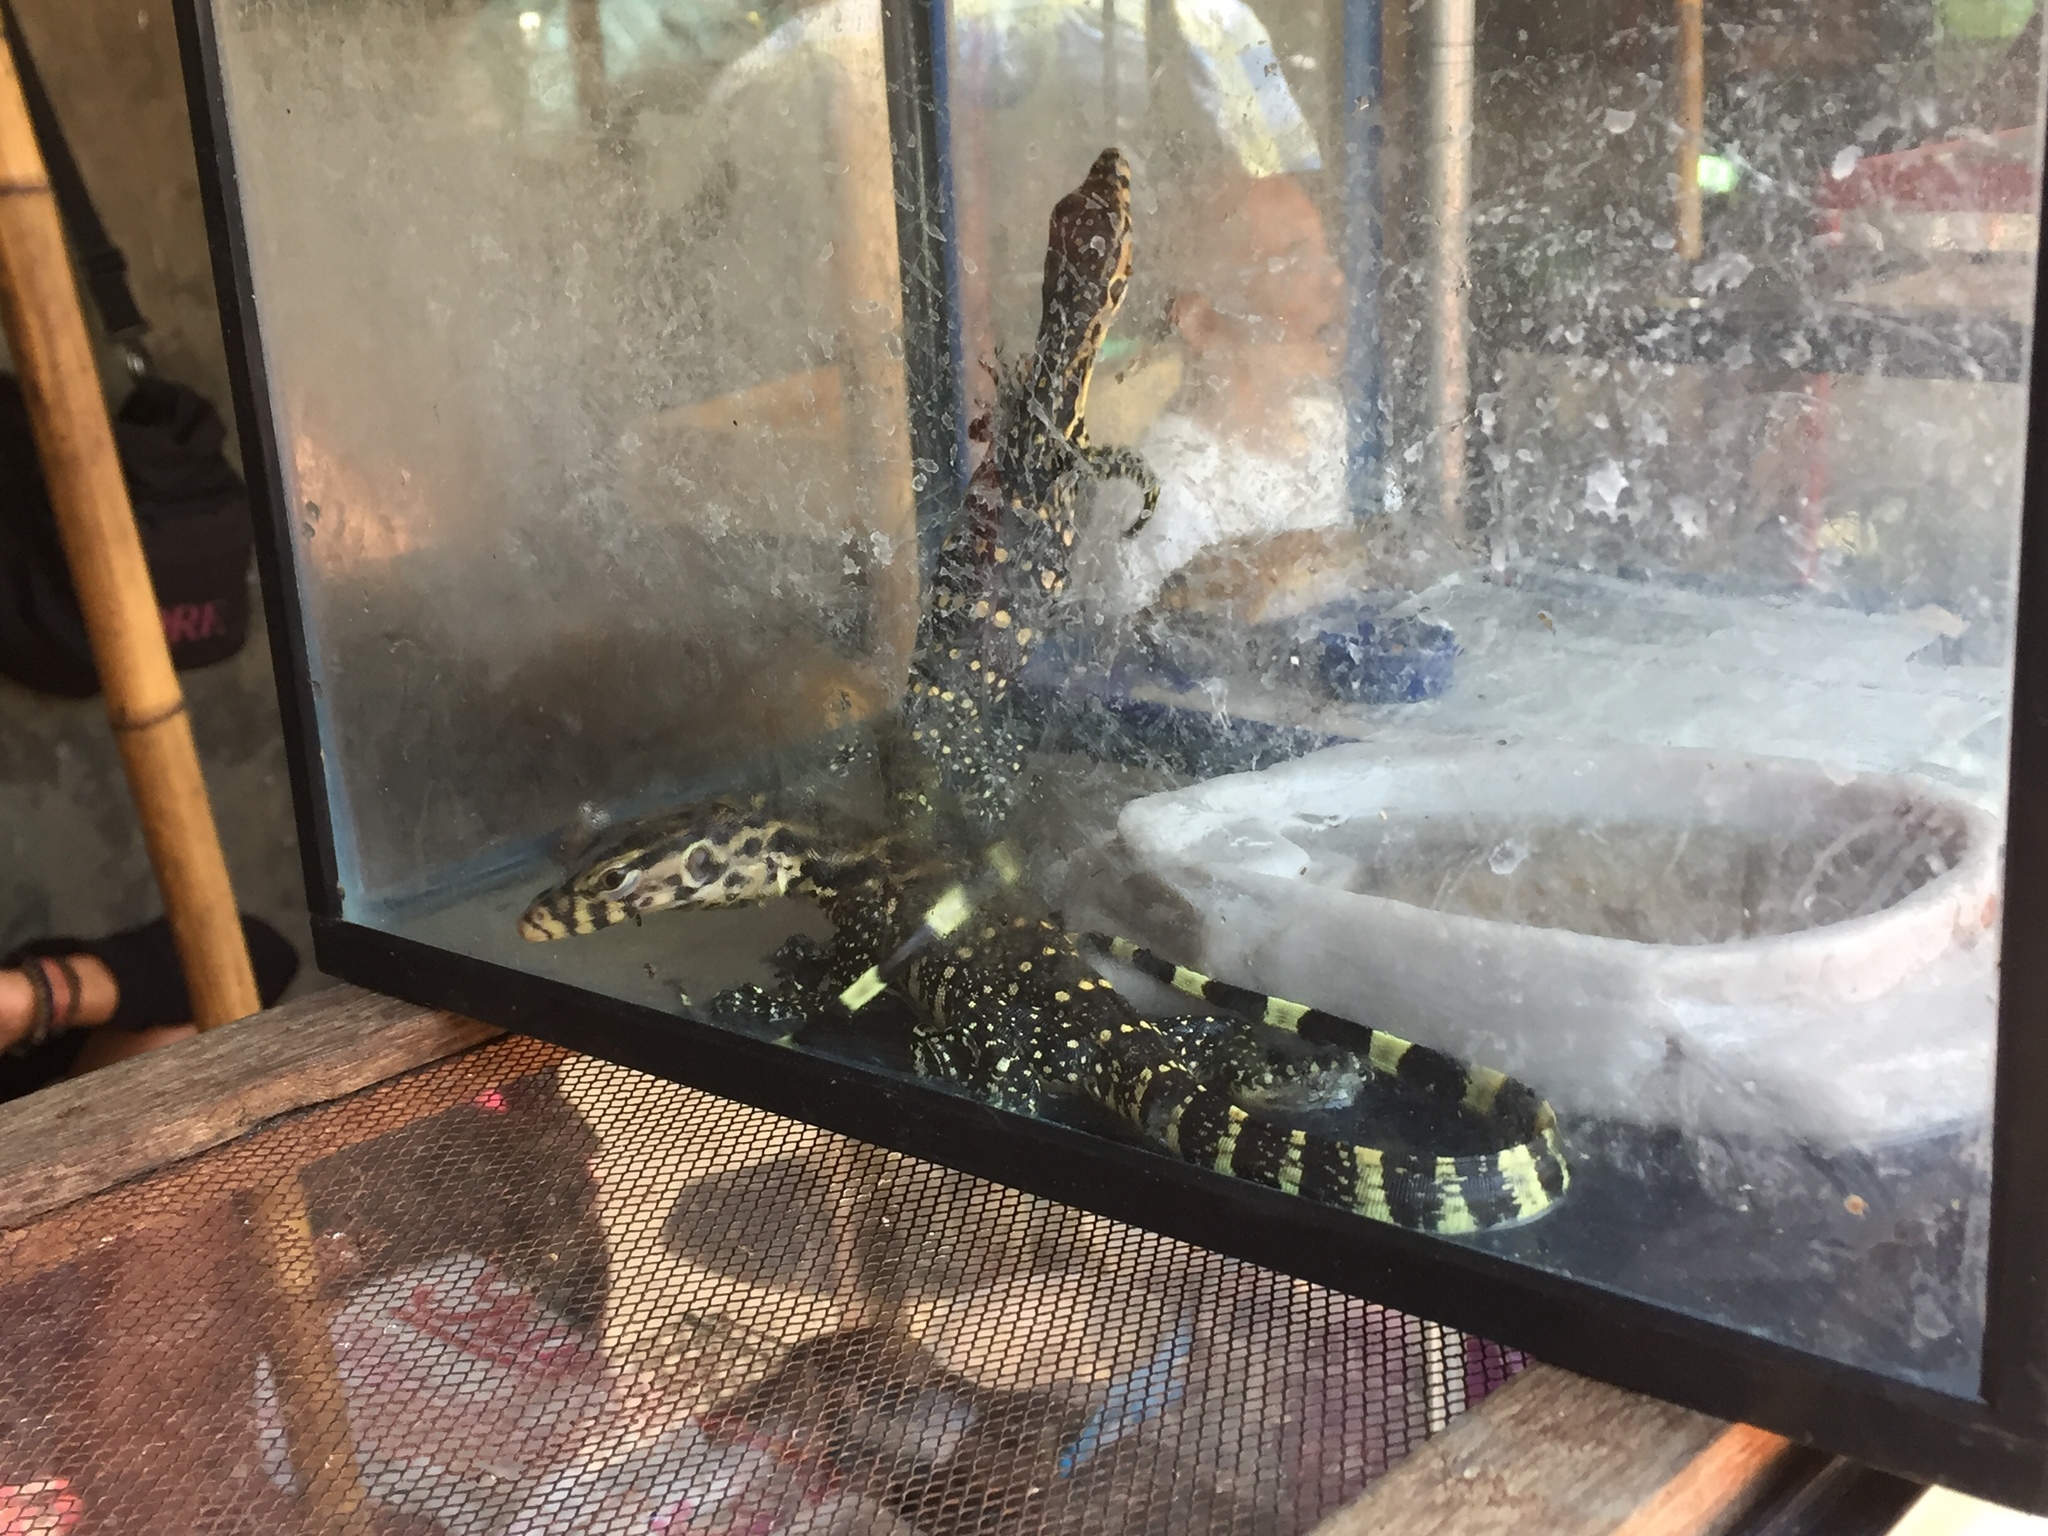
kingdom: Animalia
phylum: Chordata
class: Squamata
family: Varanidae
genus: Varanus
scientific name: Varanus salvator
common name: Common water monitor
